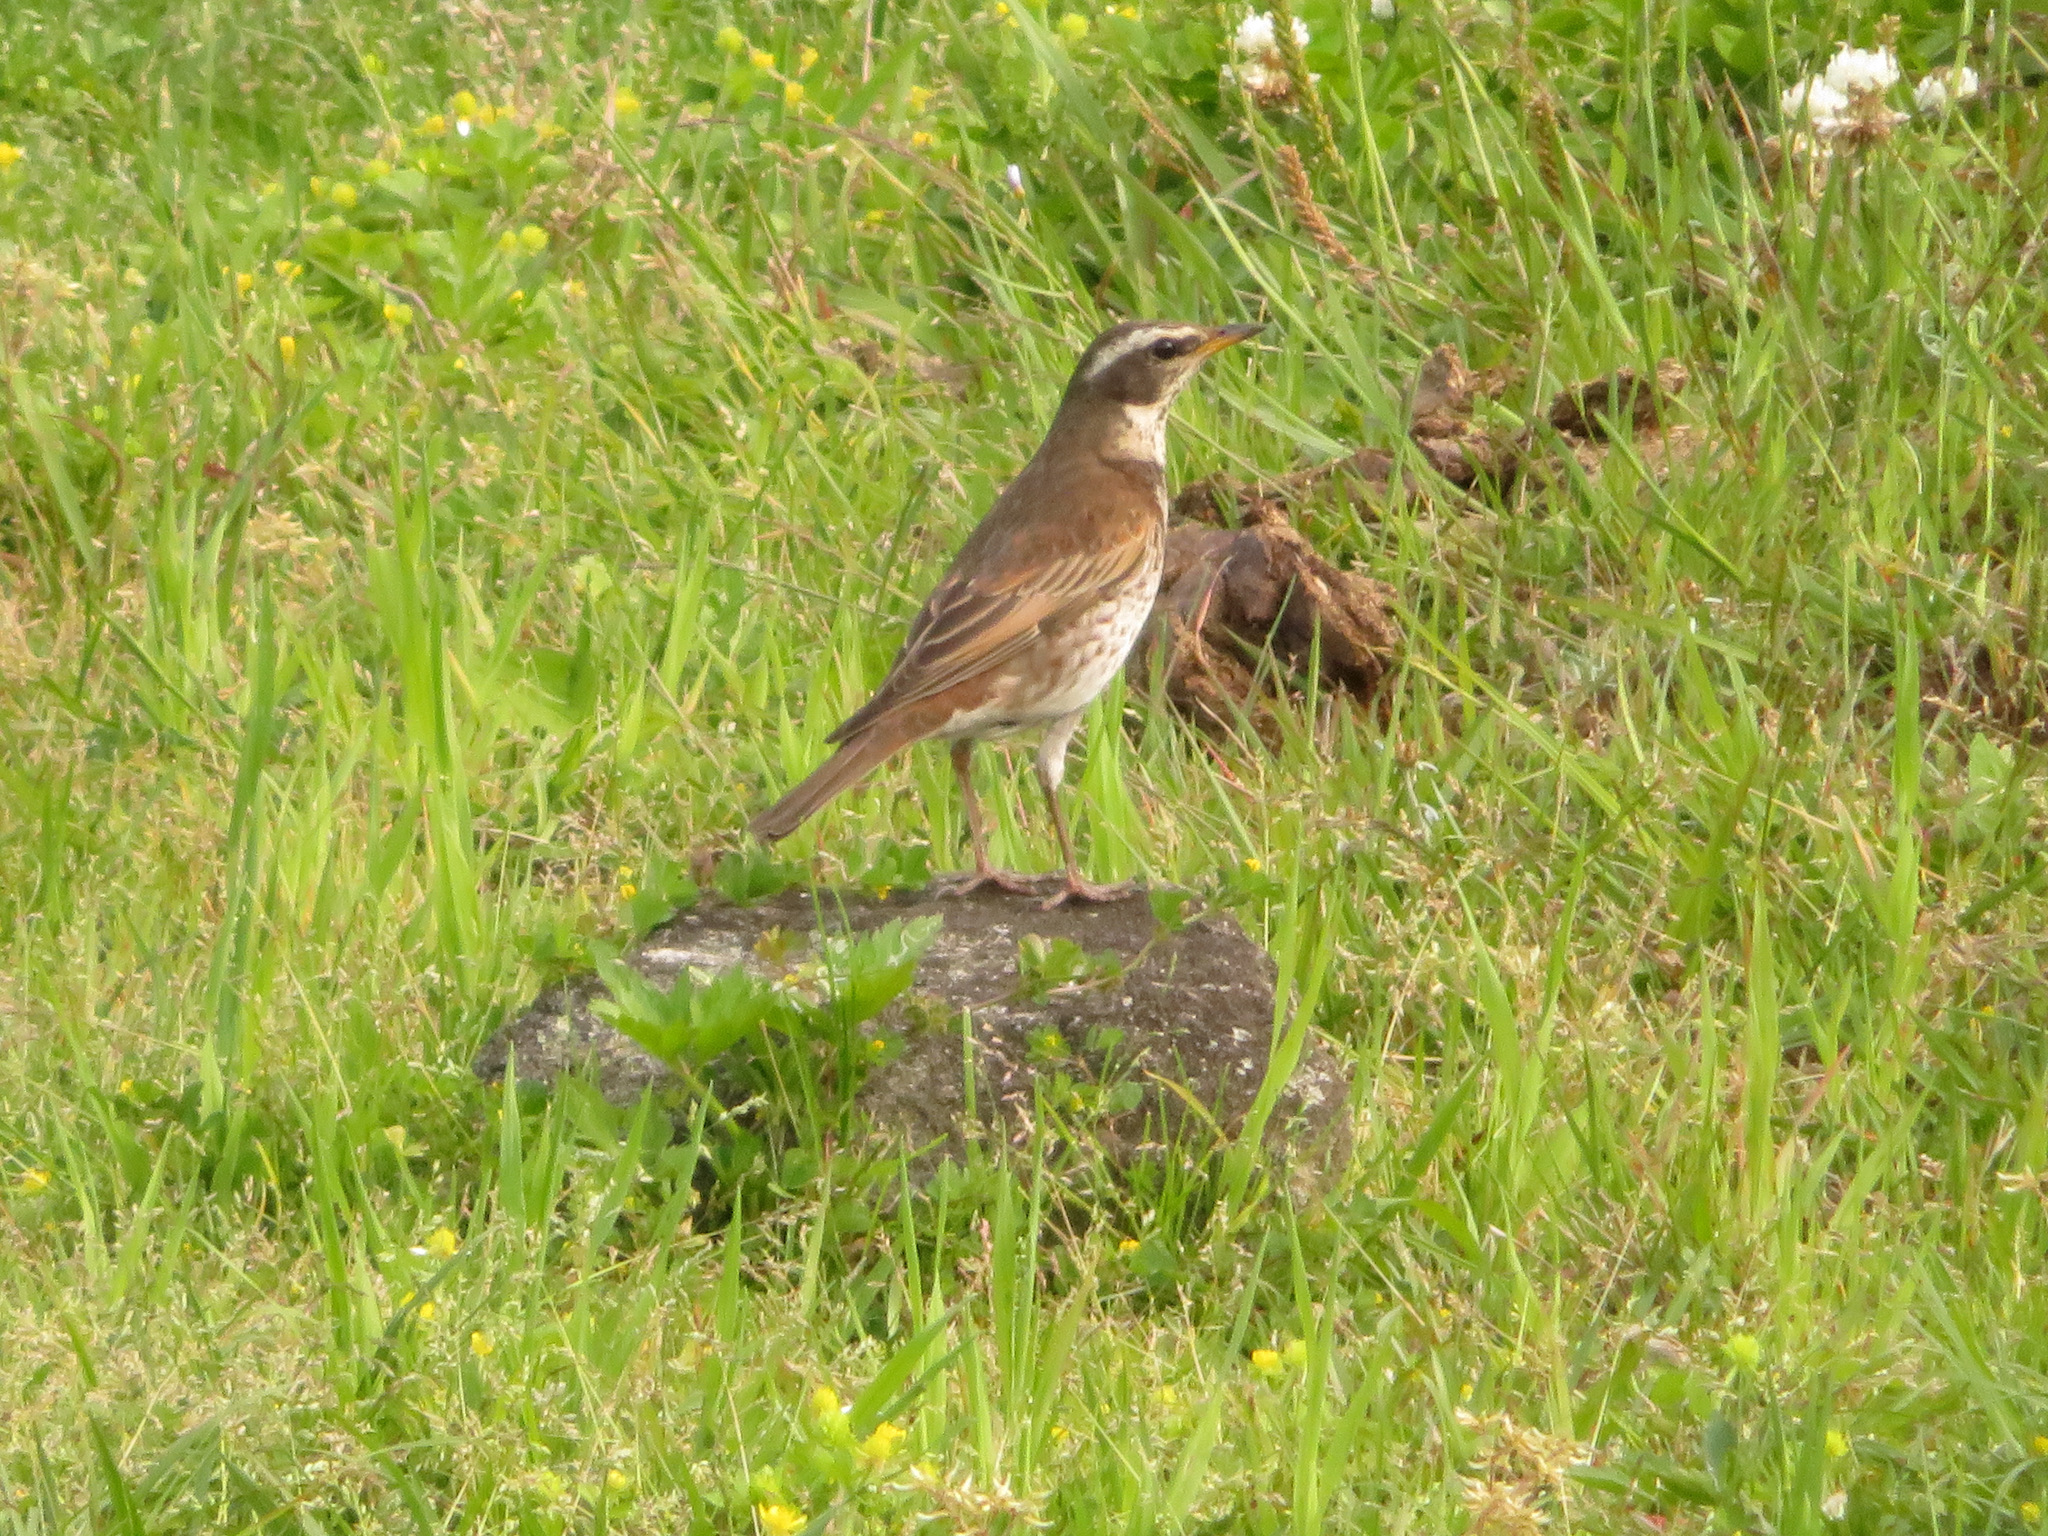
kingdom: Animalia
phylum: Chordata
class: Aves
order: Passeriformes
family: Turdidae
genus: Turdus
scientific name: Turdus eunomus
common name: Dusky thrush
